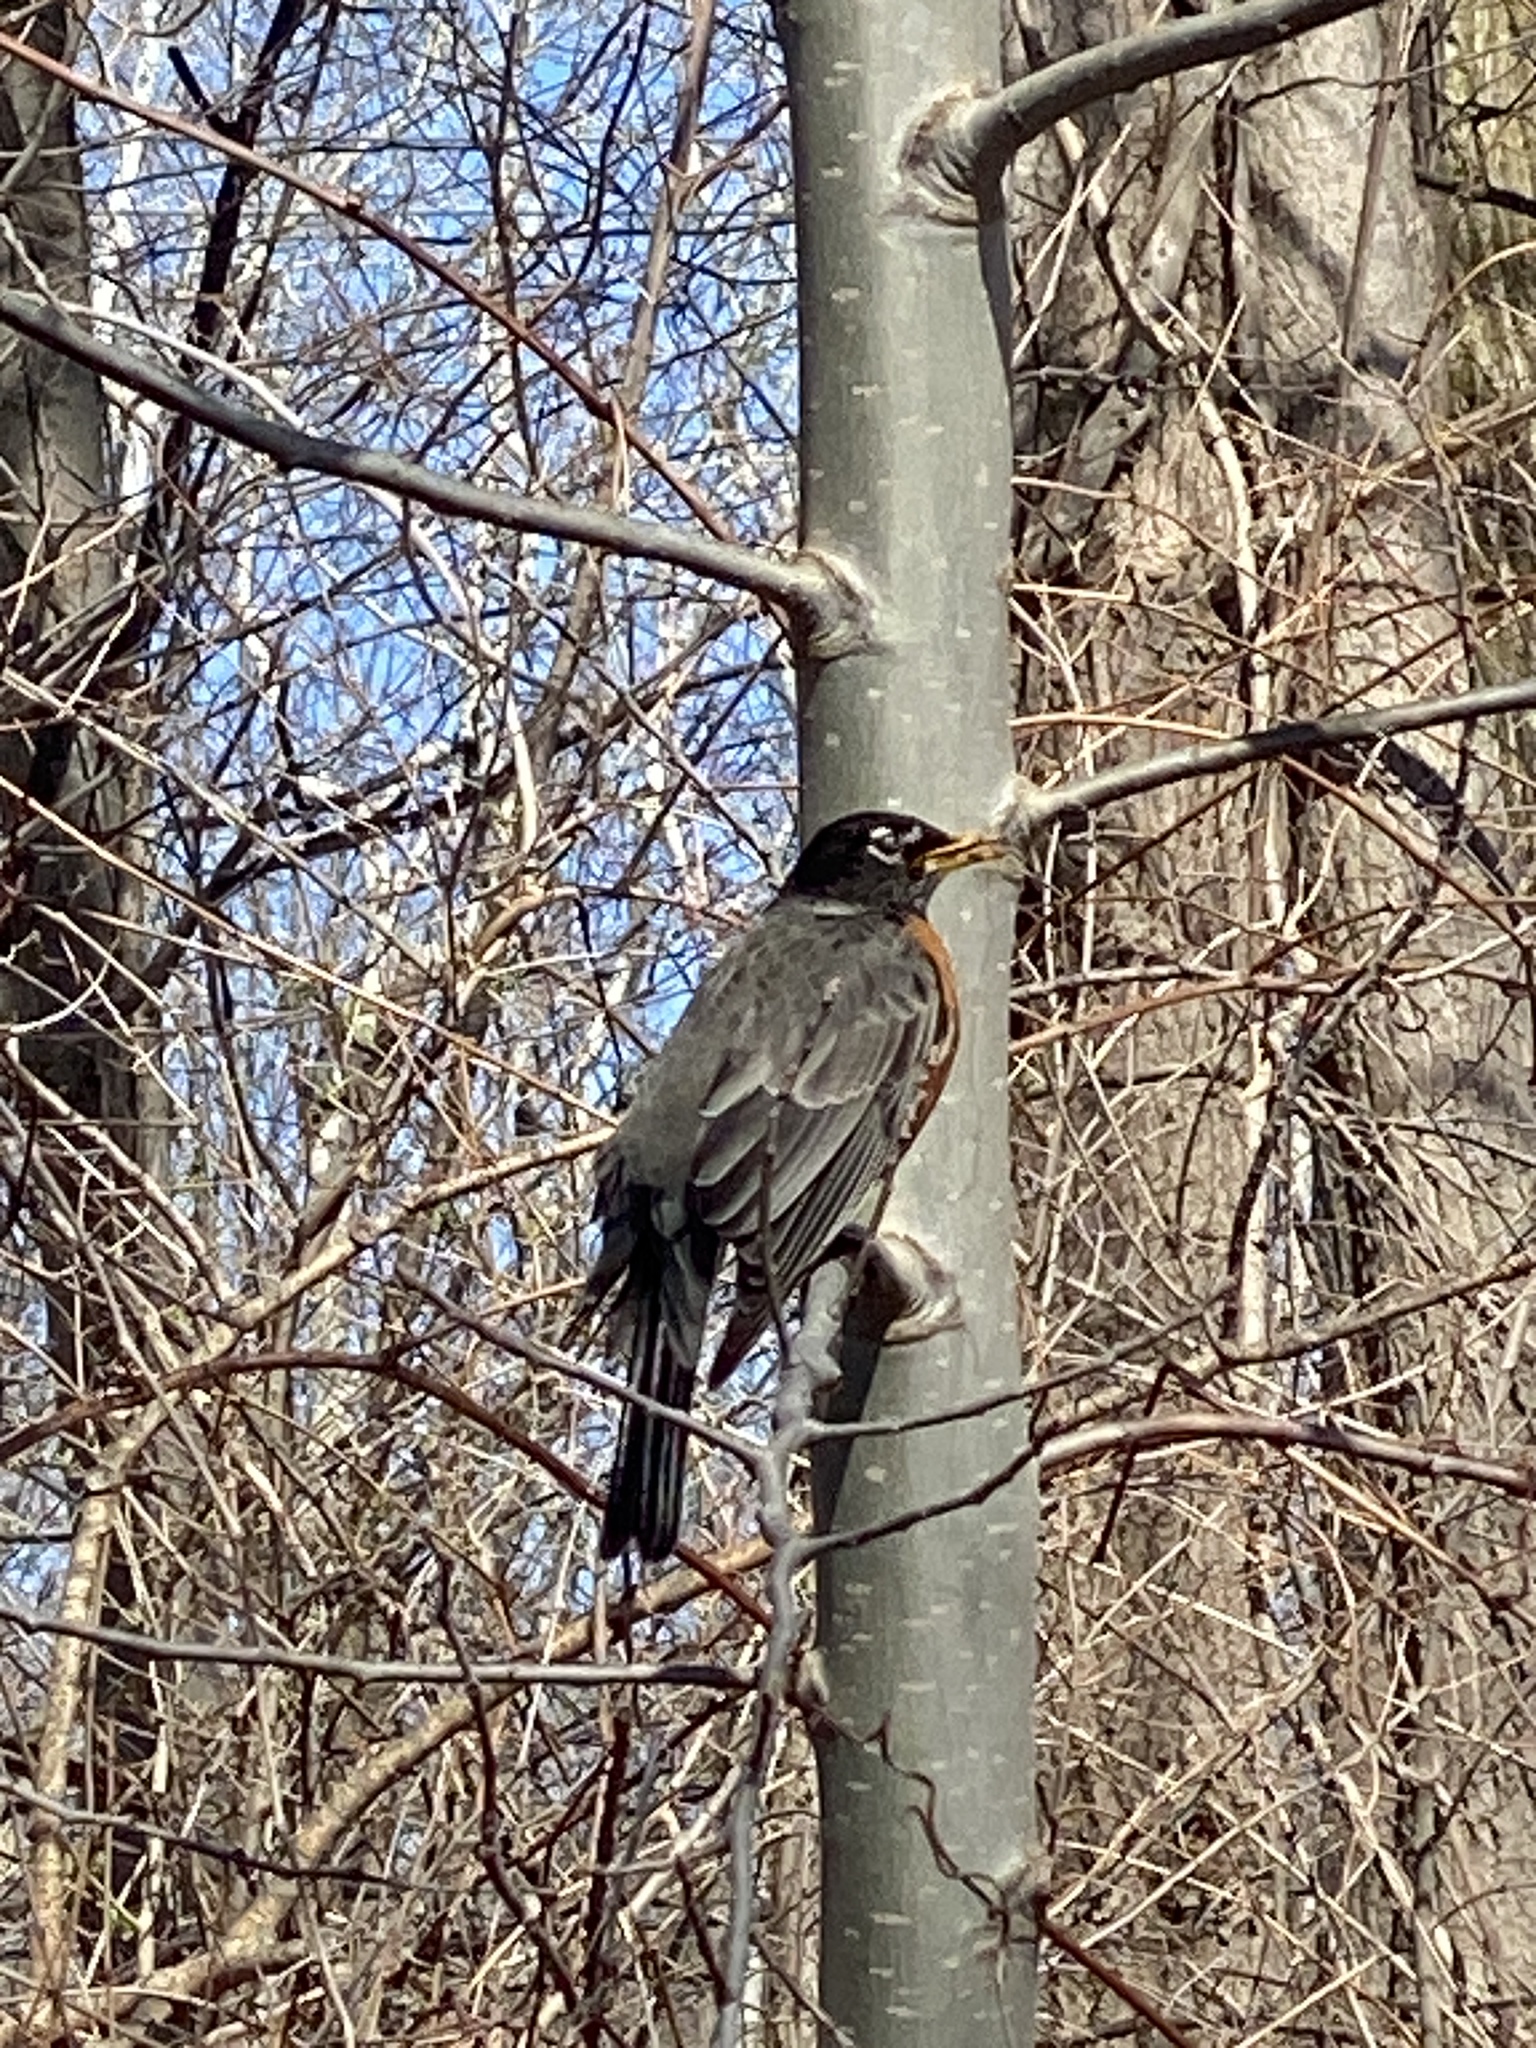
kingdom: Animalia
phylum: Chordata
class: Aves
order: Passeriformes
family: Turdidae
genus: Turdus
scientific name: Turdus migratorius
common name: American robin
